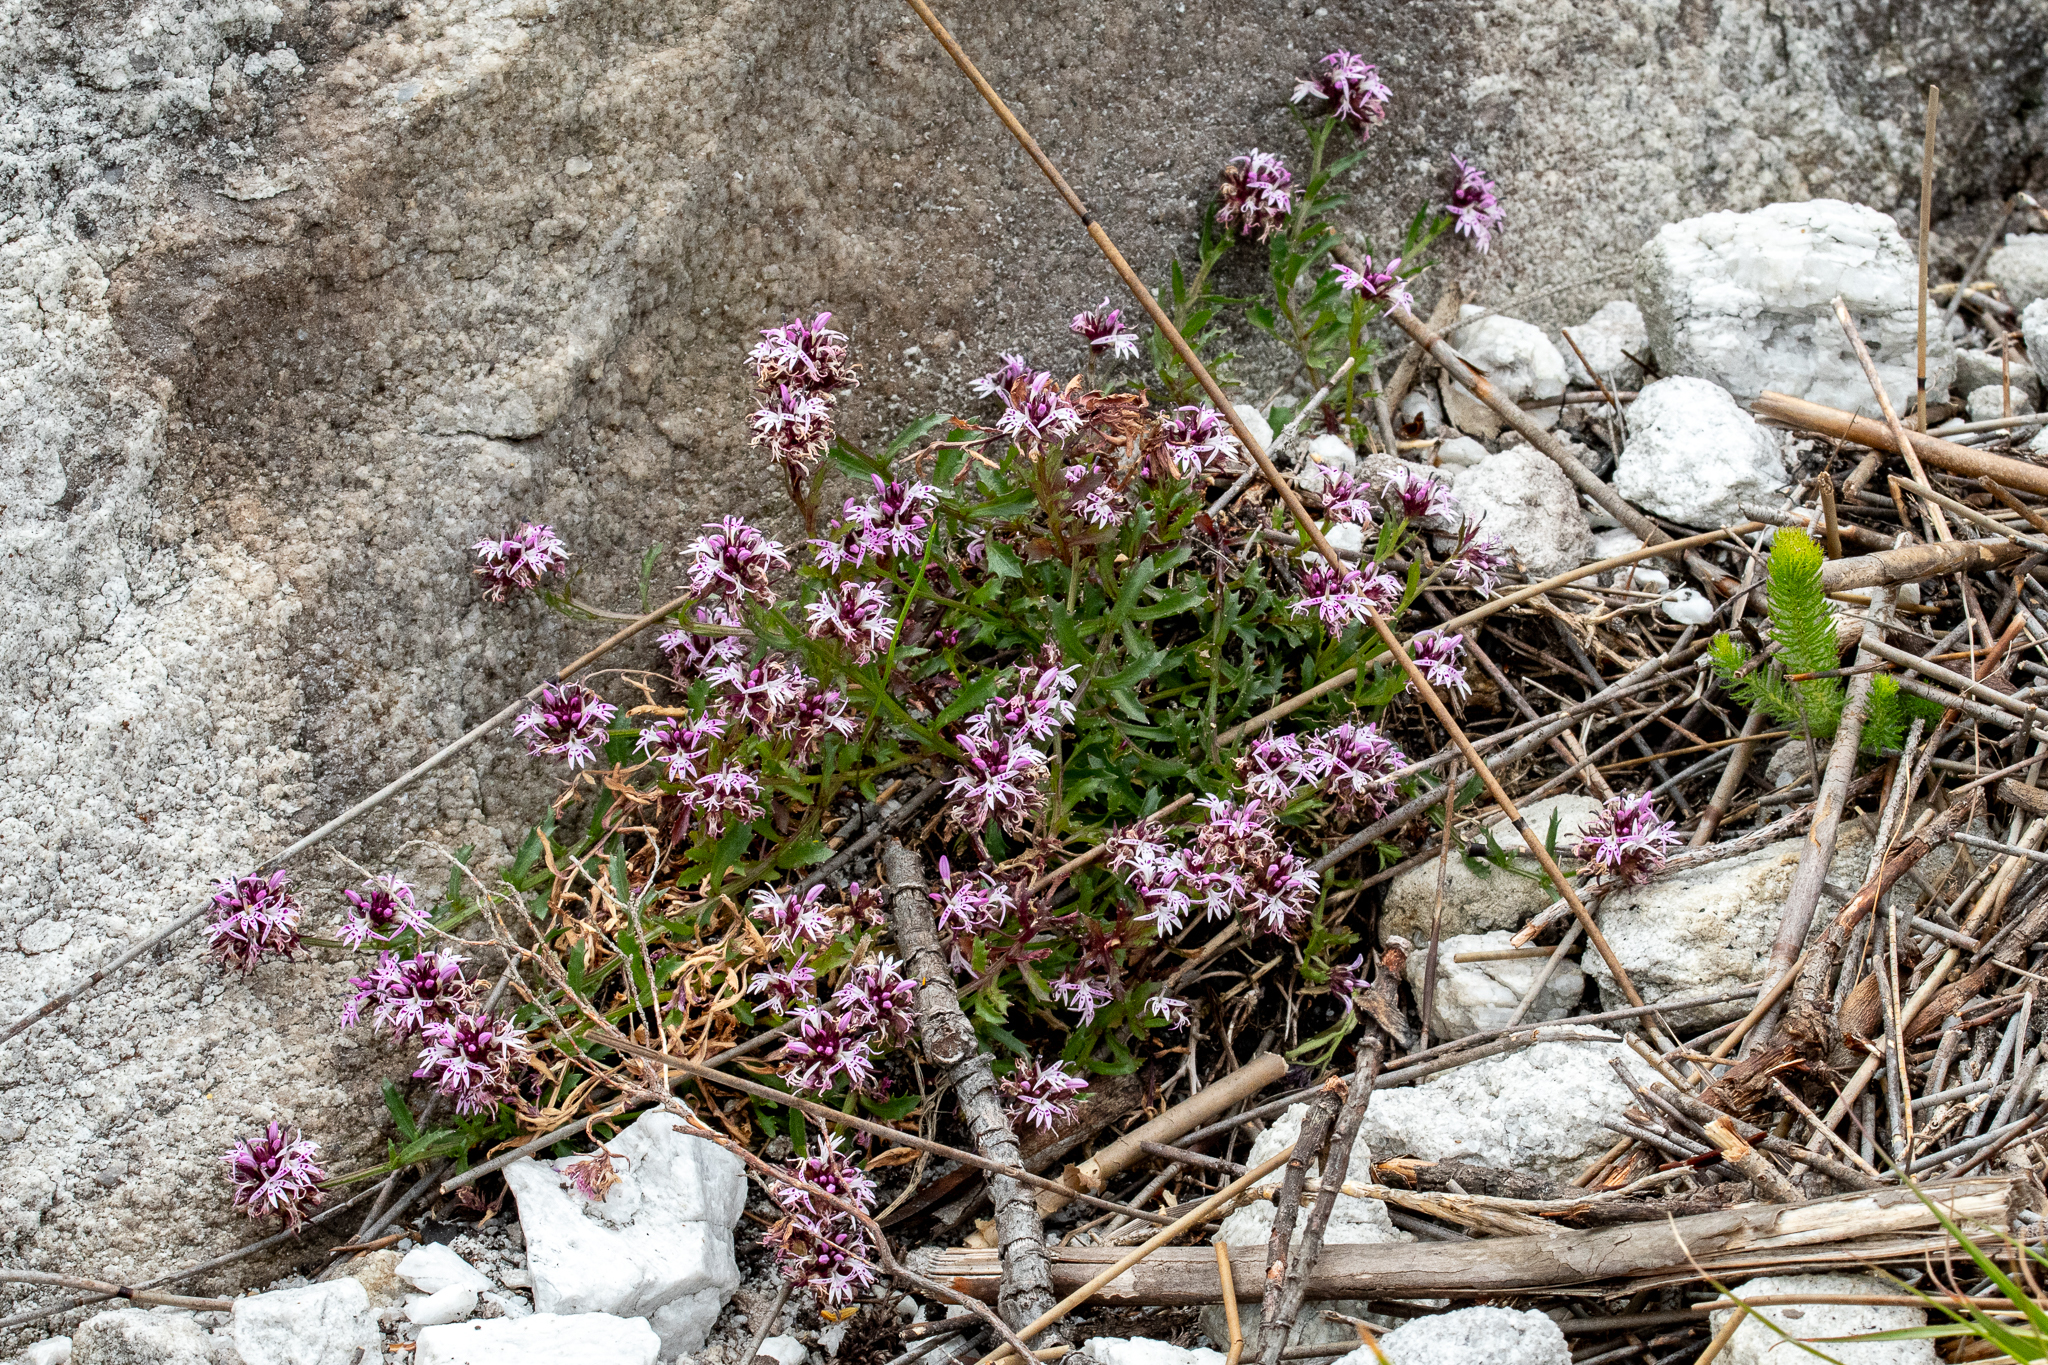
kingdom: Plantae
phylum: Tracheophyta
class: Magnoliopsida
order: Asterales
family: Campanulaceae
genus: Lobelia
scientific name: Lobelia jasionoides
